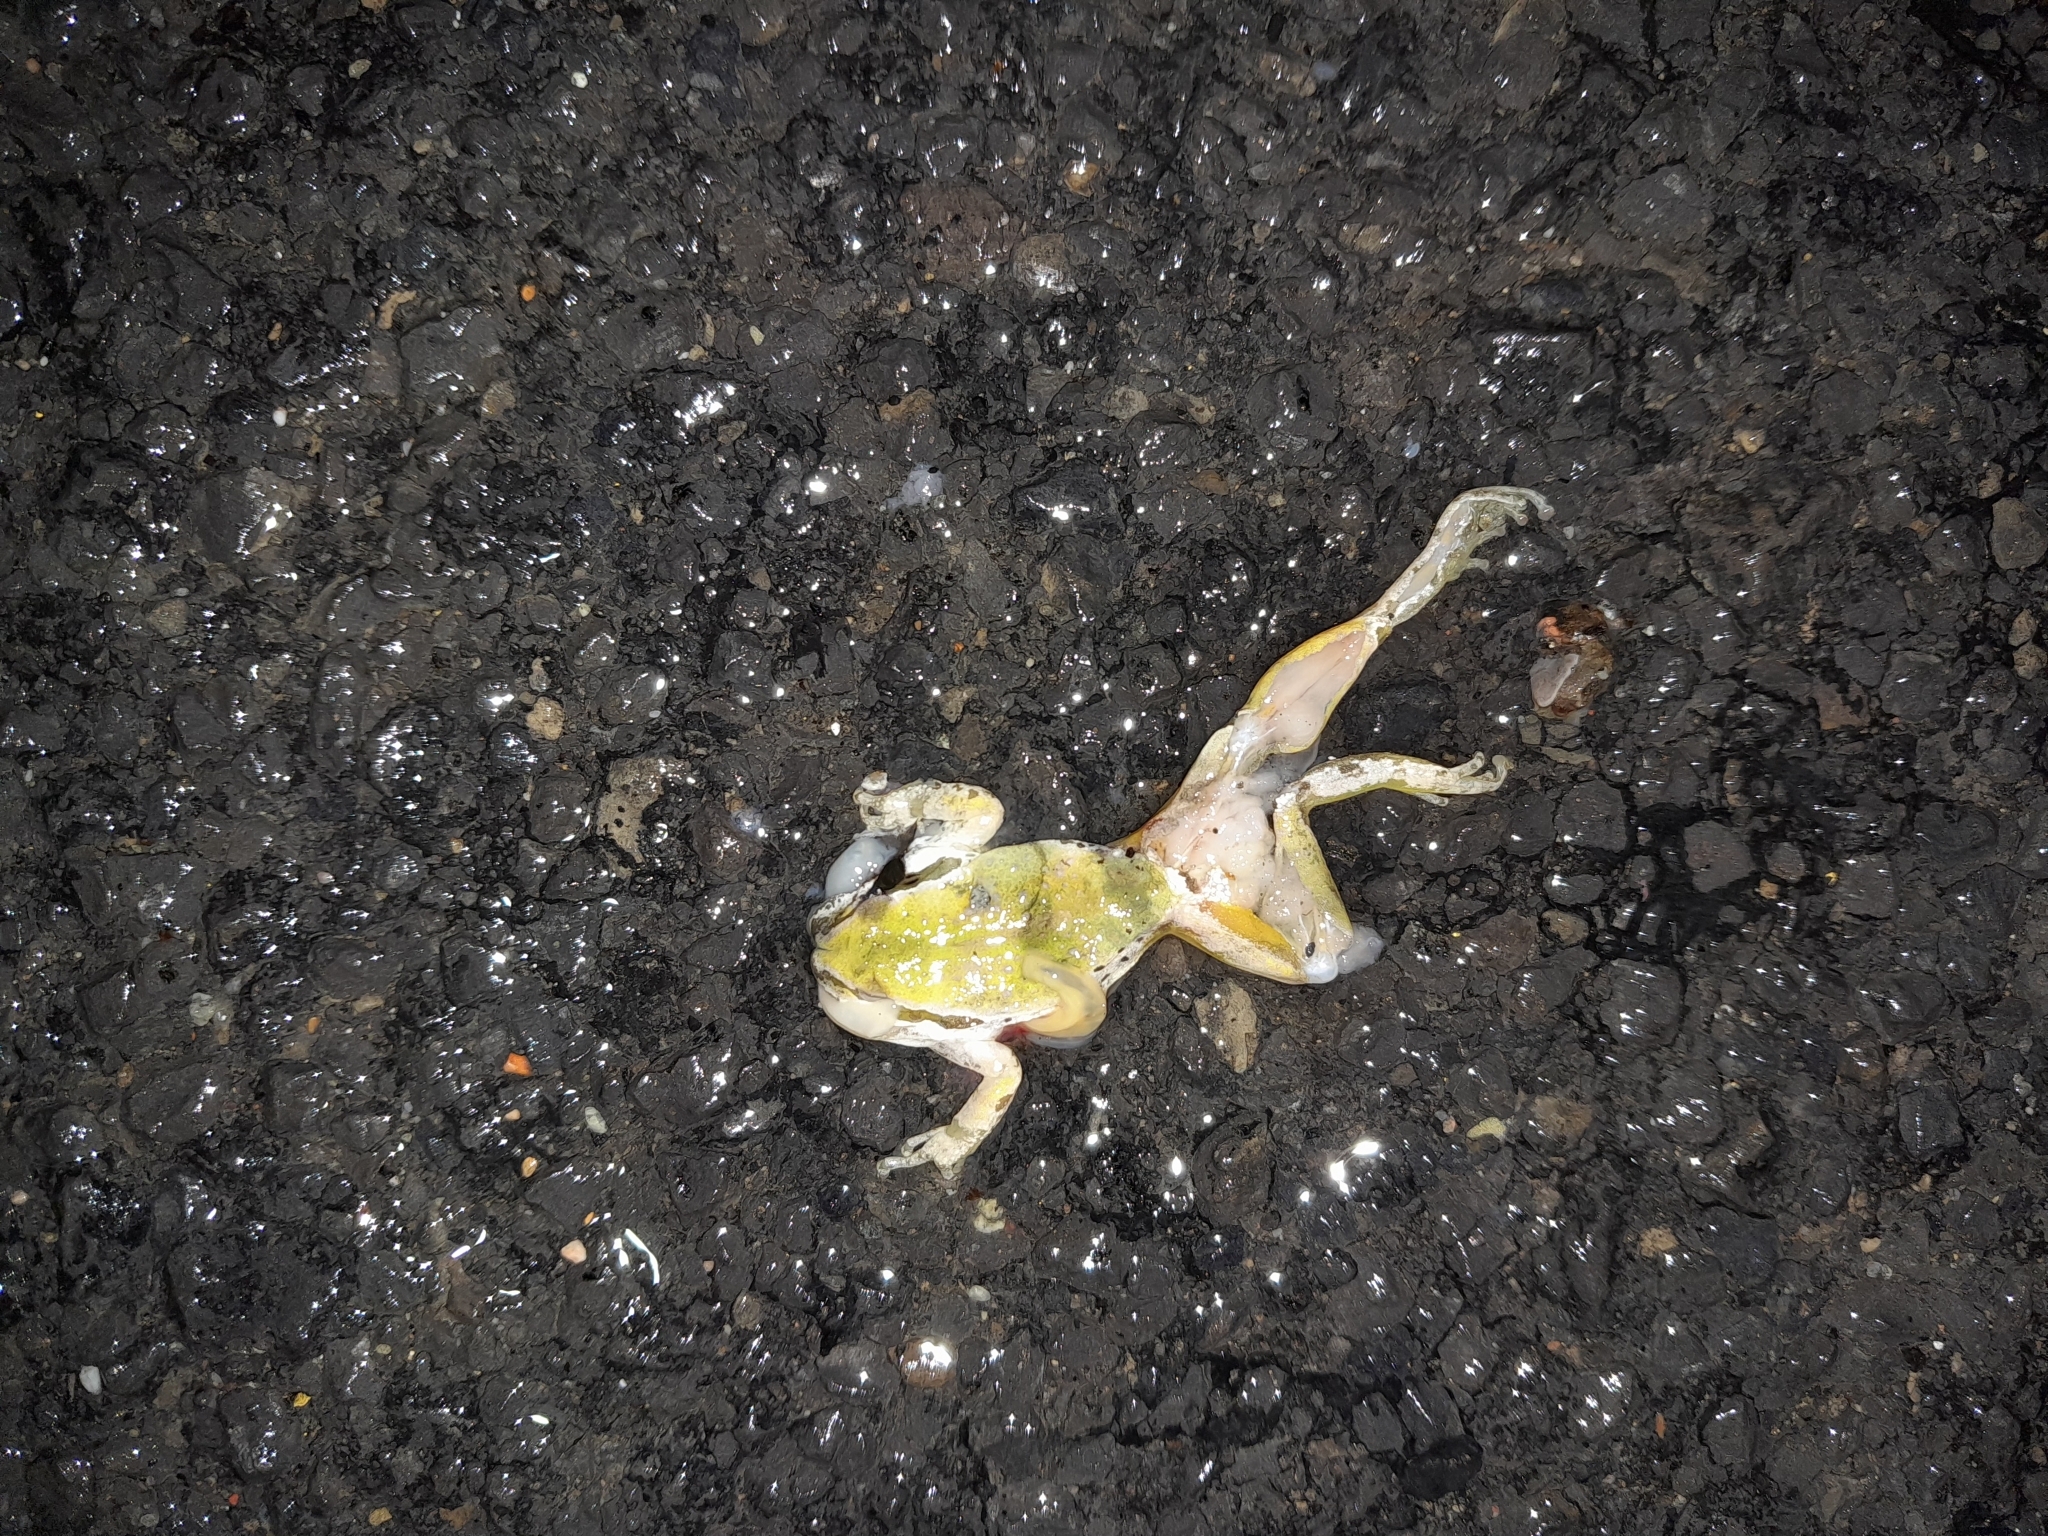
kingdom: Animalia
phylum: Chordata
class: Amphibia
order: Anura
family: Hylidae
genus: Pseudacris
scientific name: Pseudacris regilla
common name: Pacific chorus frog
